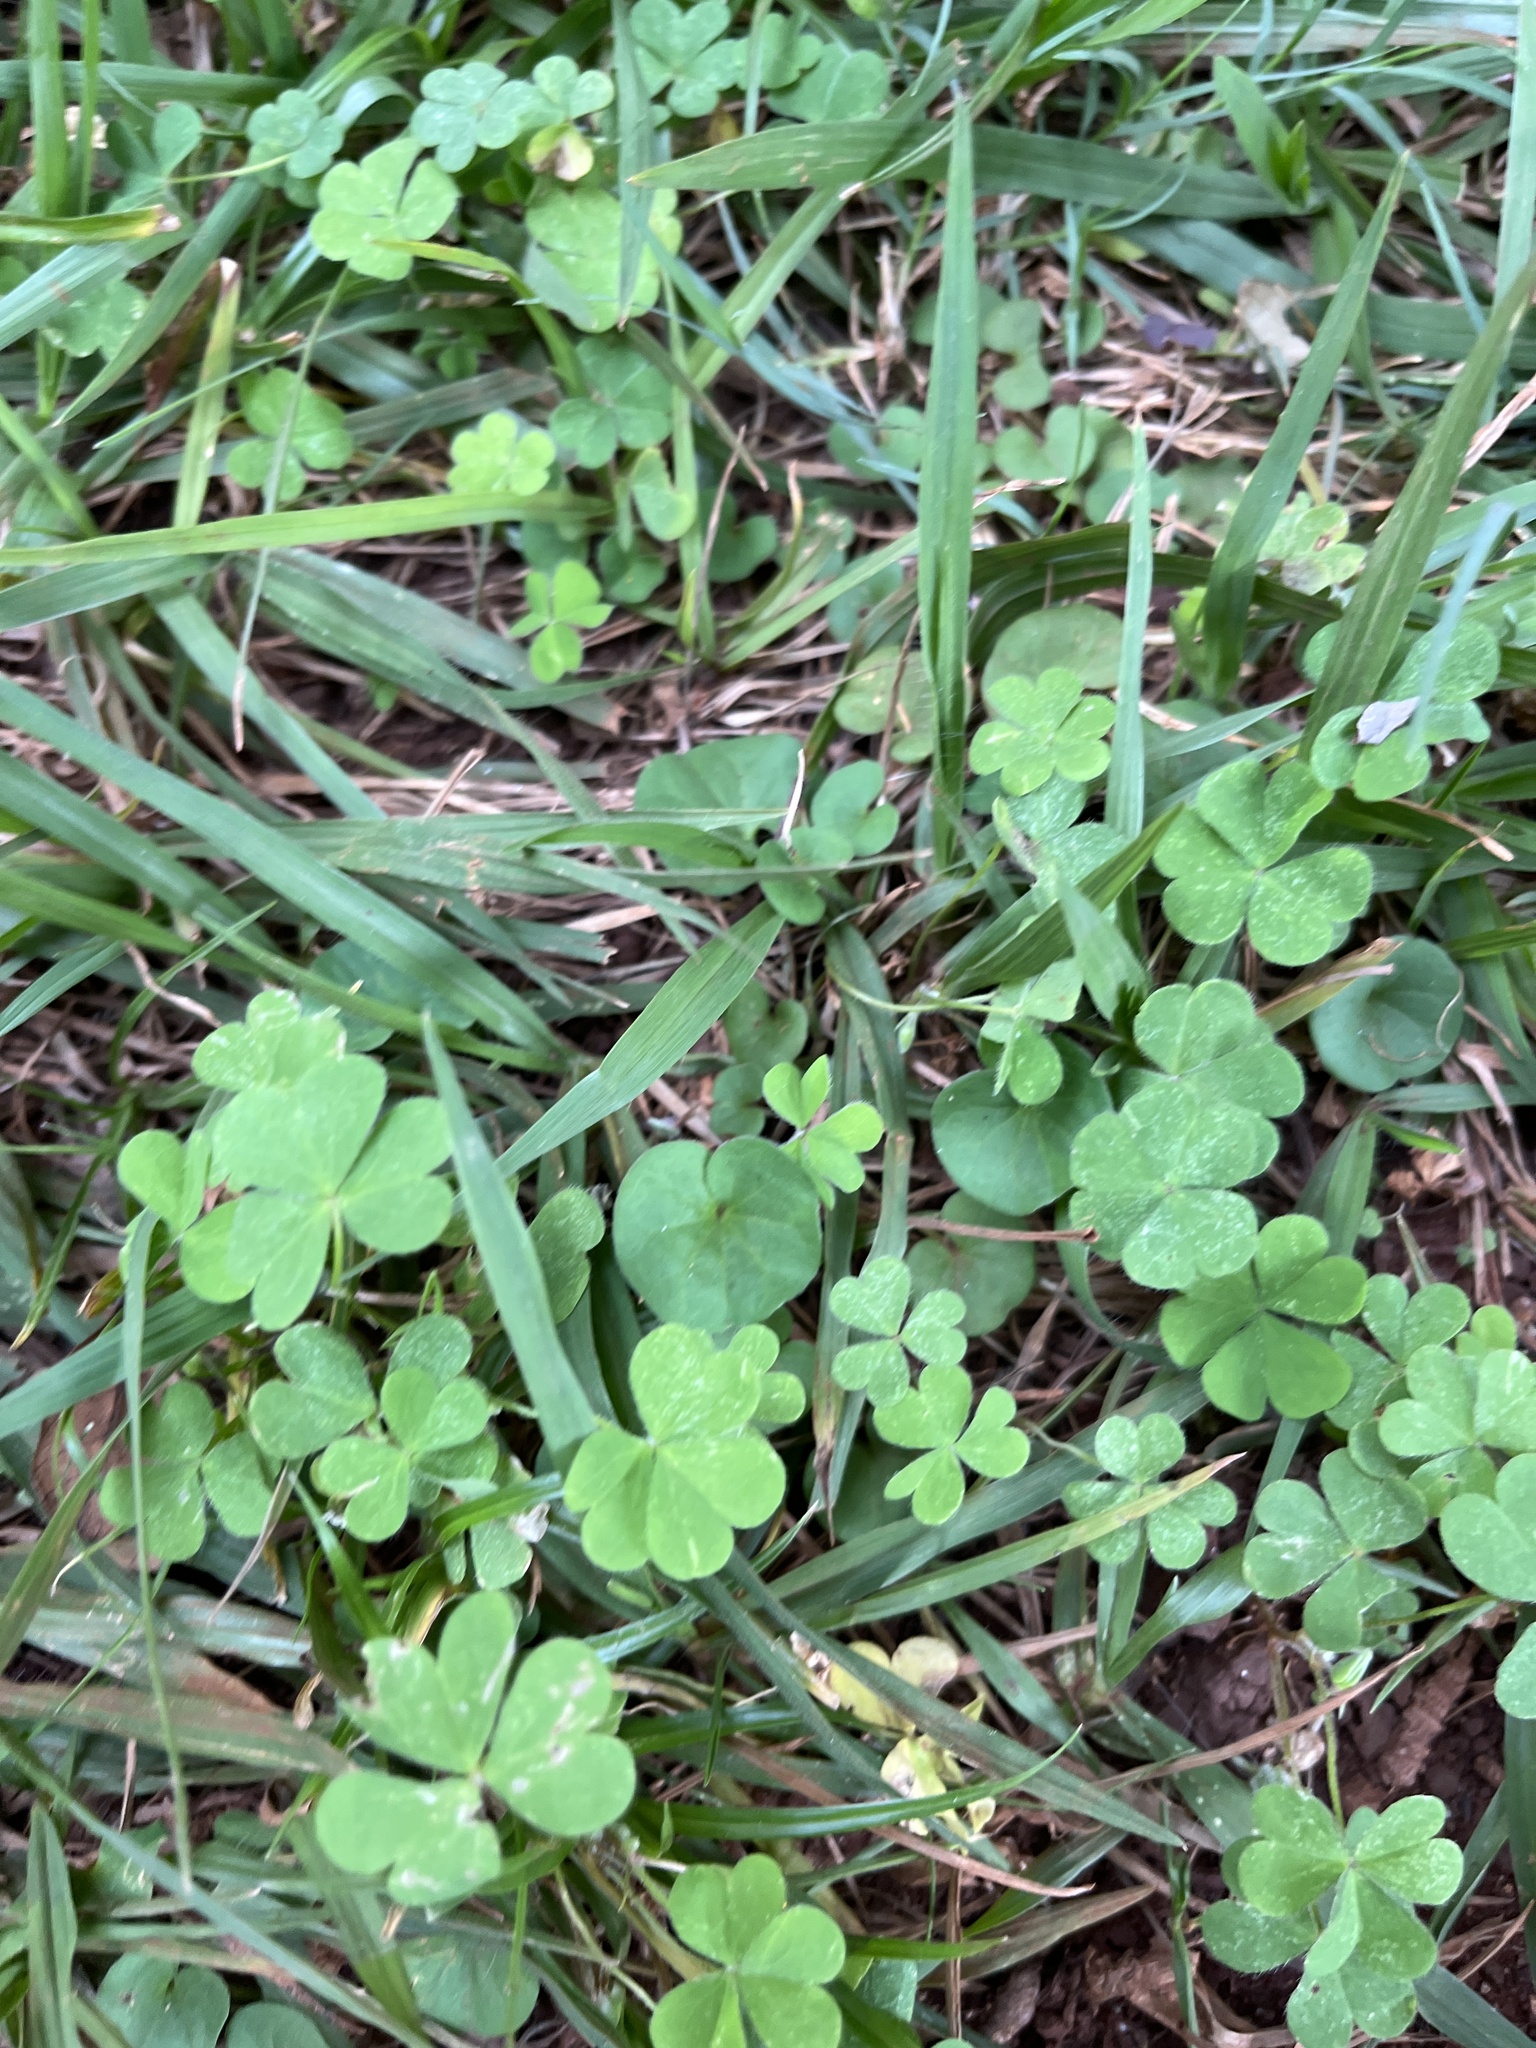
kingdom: Plantae
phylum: Tracheophyta
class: Magnoliopsida
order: Oxalidales
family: Oxalidaceae
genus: Oxalis
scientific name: Oxalis corniculata
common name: Procumbent yellow-sorrel
